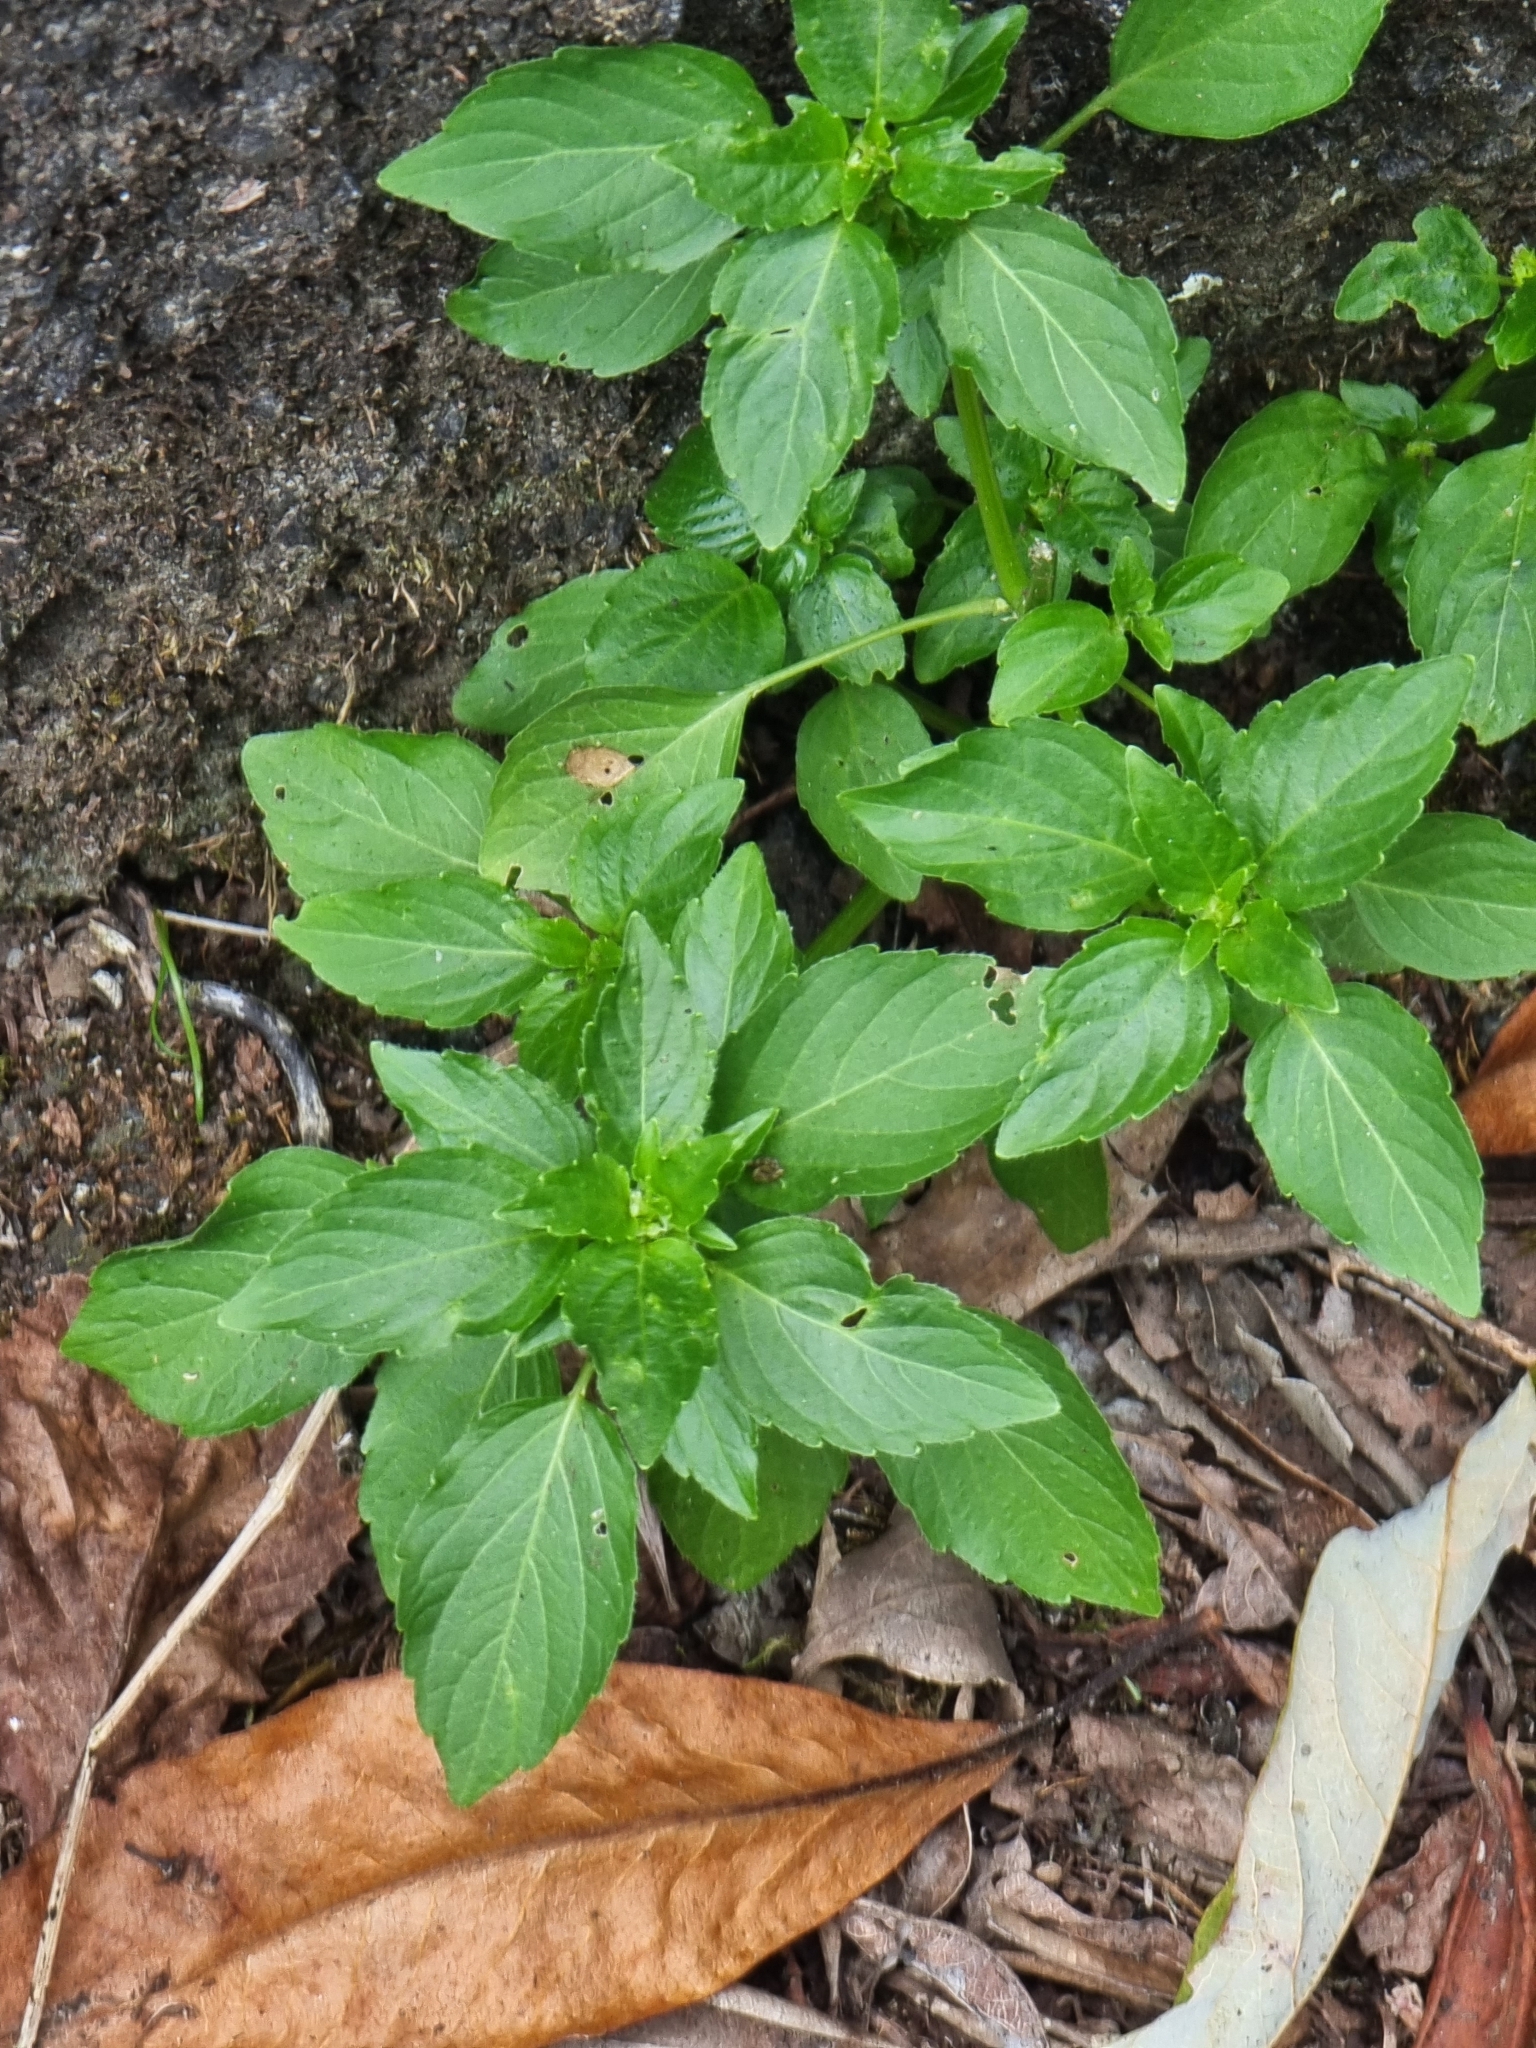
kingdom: Plantae
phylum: Tracheophyta
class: Magnoliopsida
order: Malpighiales
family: Euphorbiaceae
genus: Mercurialis
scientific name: Mercurialis annua
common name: Annual mercury
